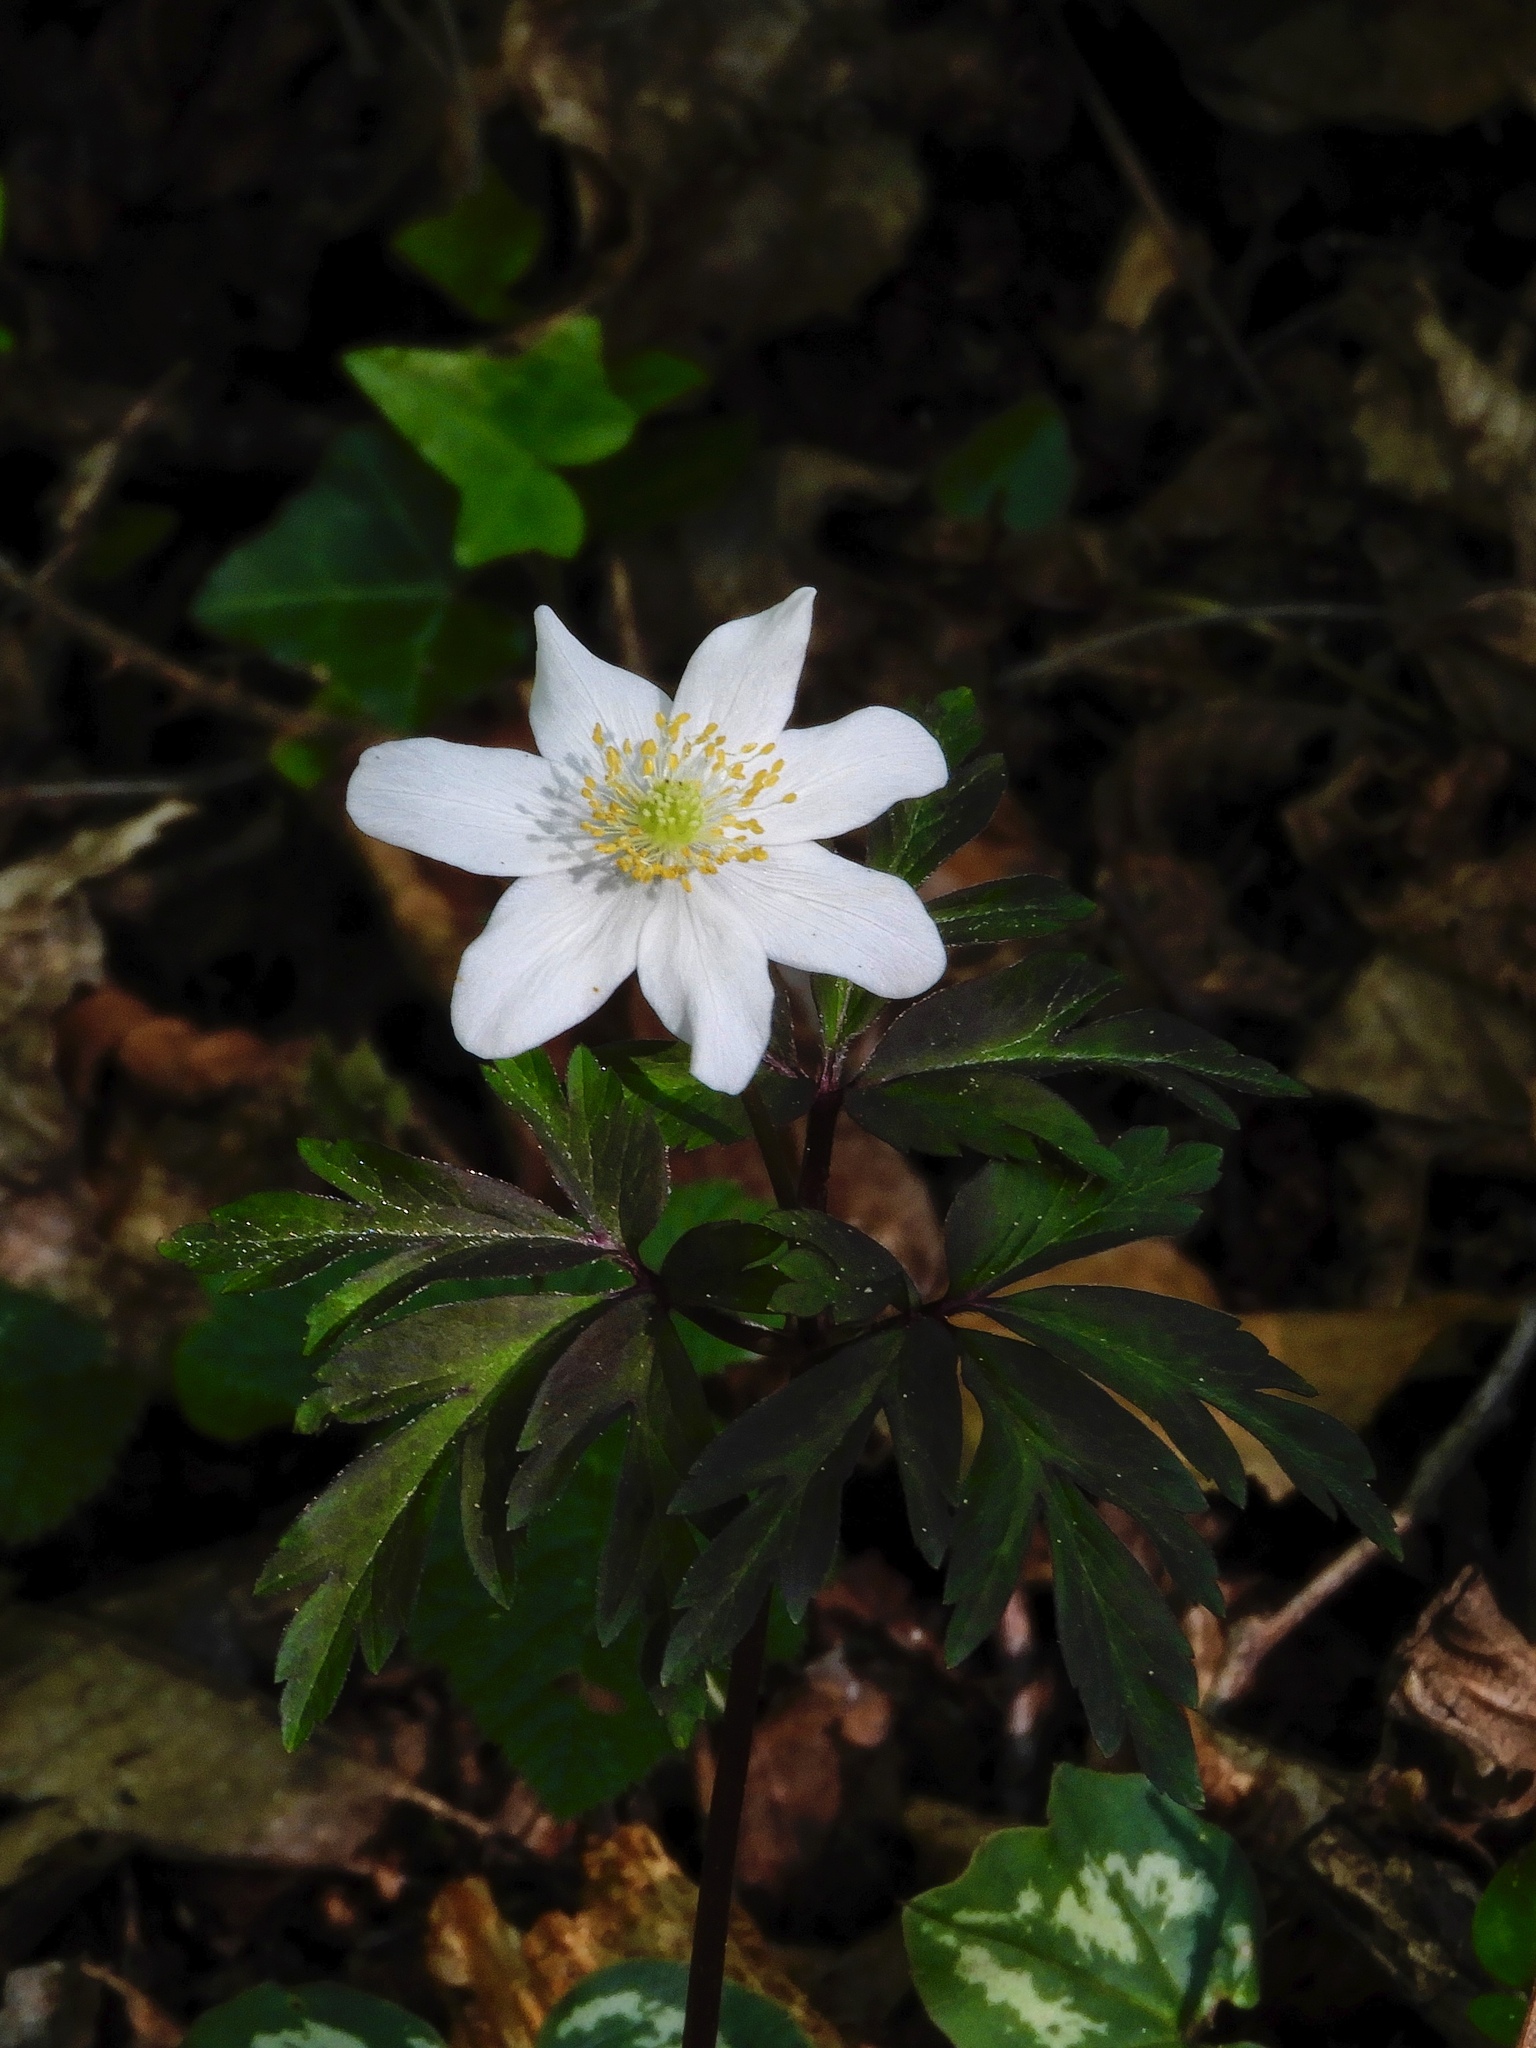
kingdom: Plantae
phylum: Tracheophyta
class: Magnoliopsida
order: Ranunculales
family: Ranunculaceae
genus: Anemone
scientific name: Anemone nemorosa
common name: Wood anemone
